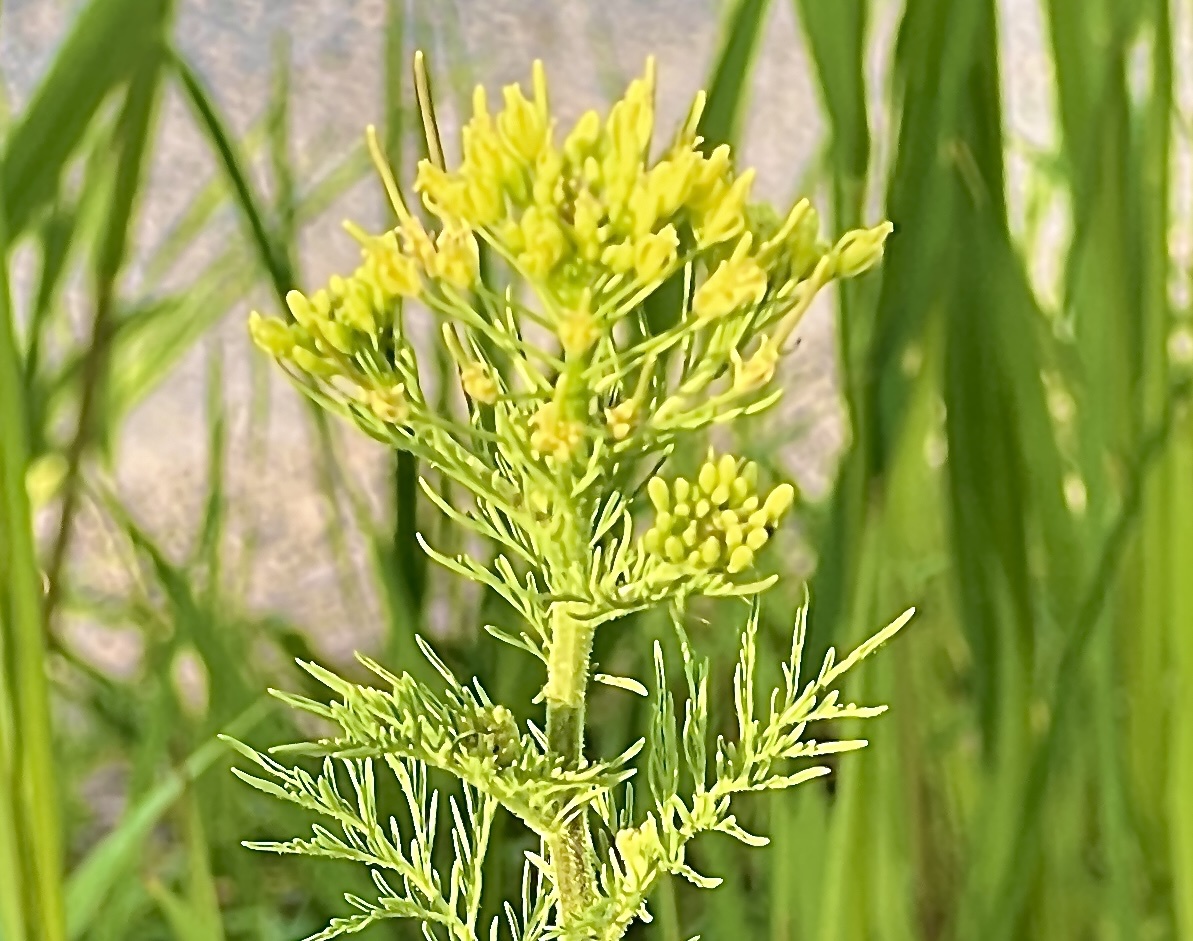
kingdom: Plantae
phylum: Tracheophyta
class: Magnoliopsida
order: Brassicales
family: Brassicaceae
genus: Descurainia
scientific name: Descurainia sophia
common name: Flixweed
